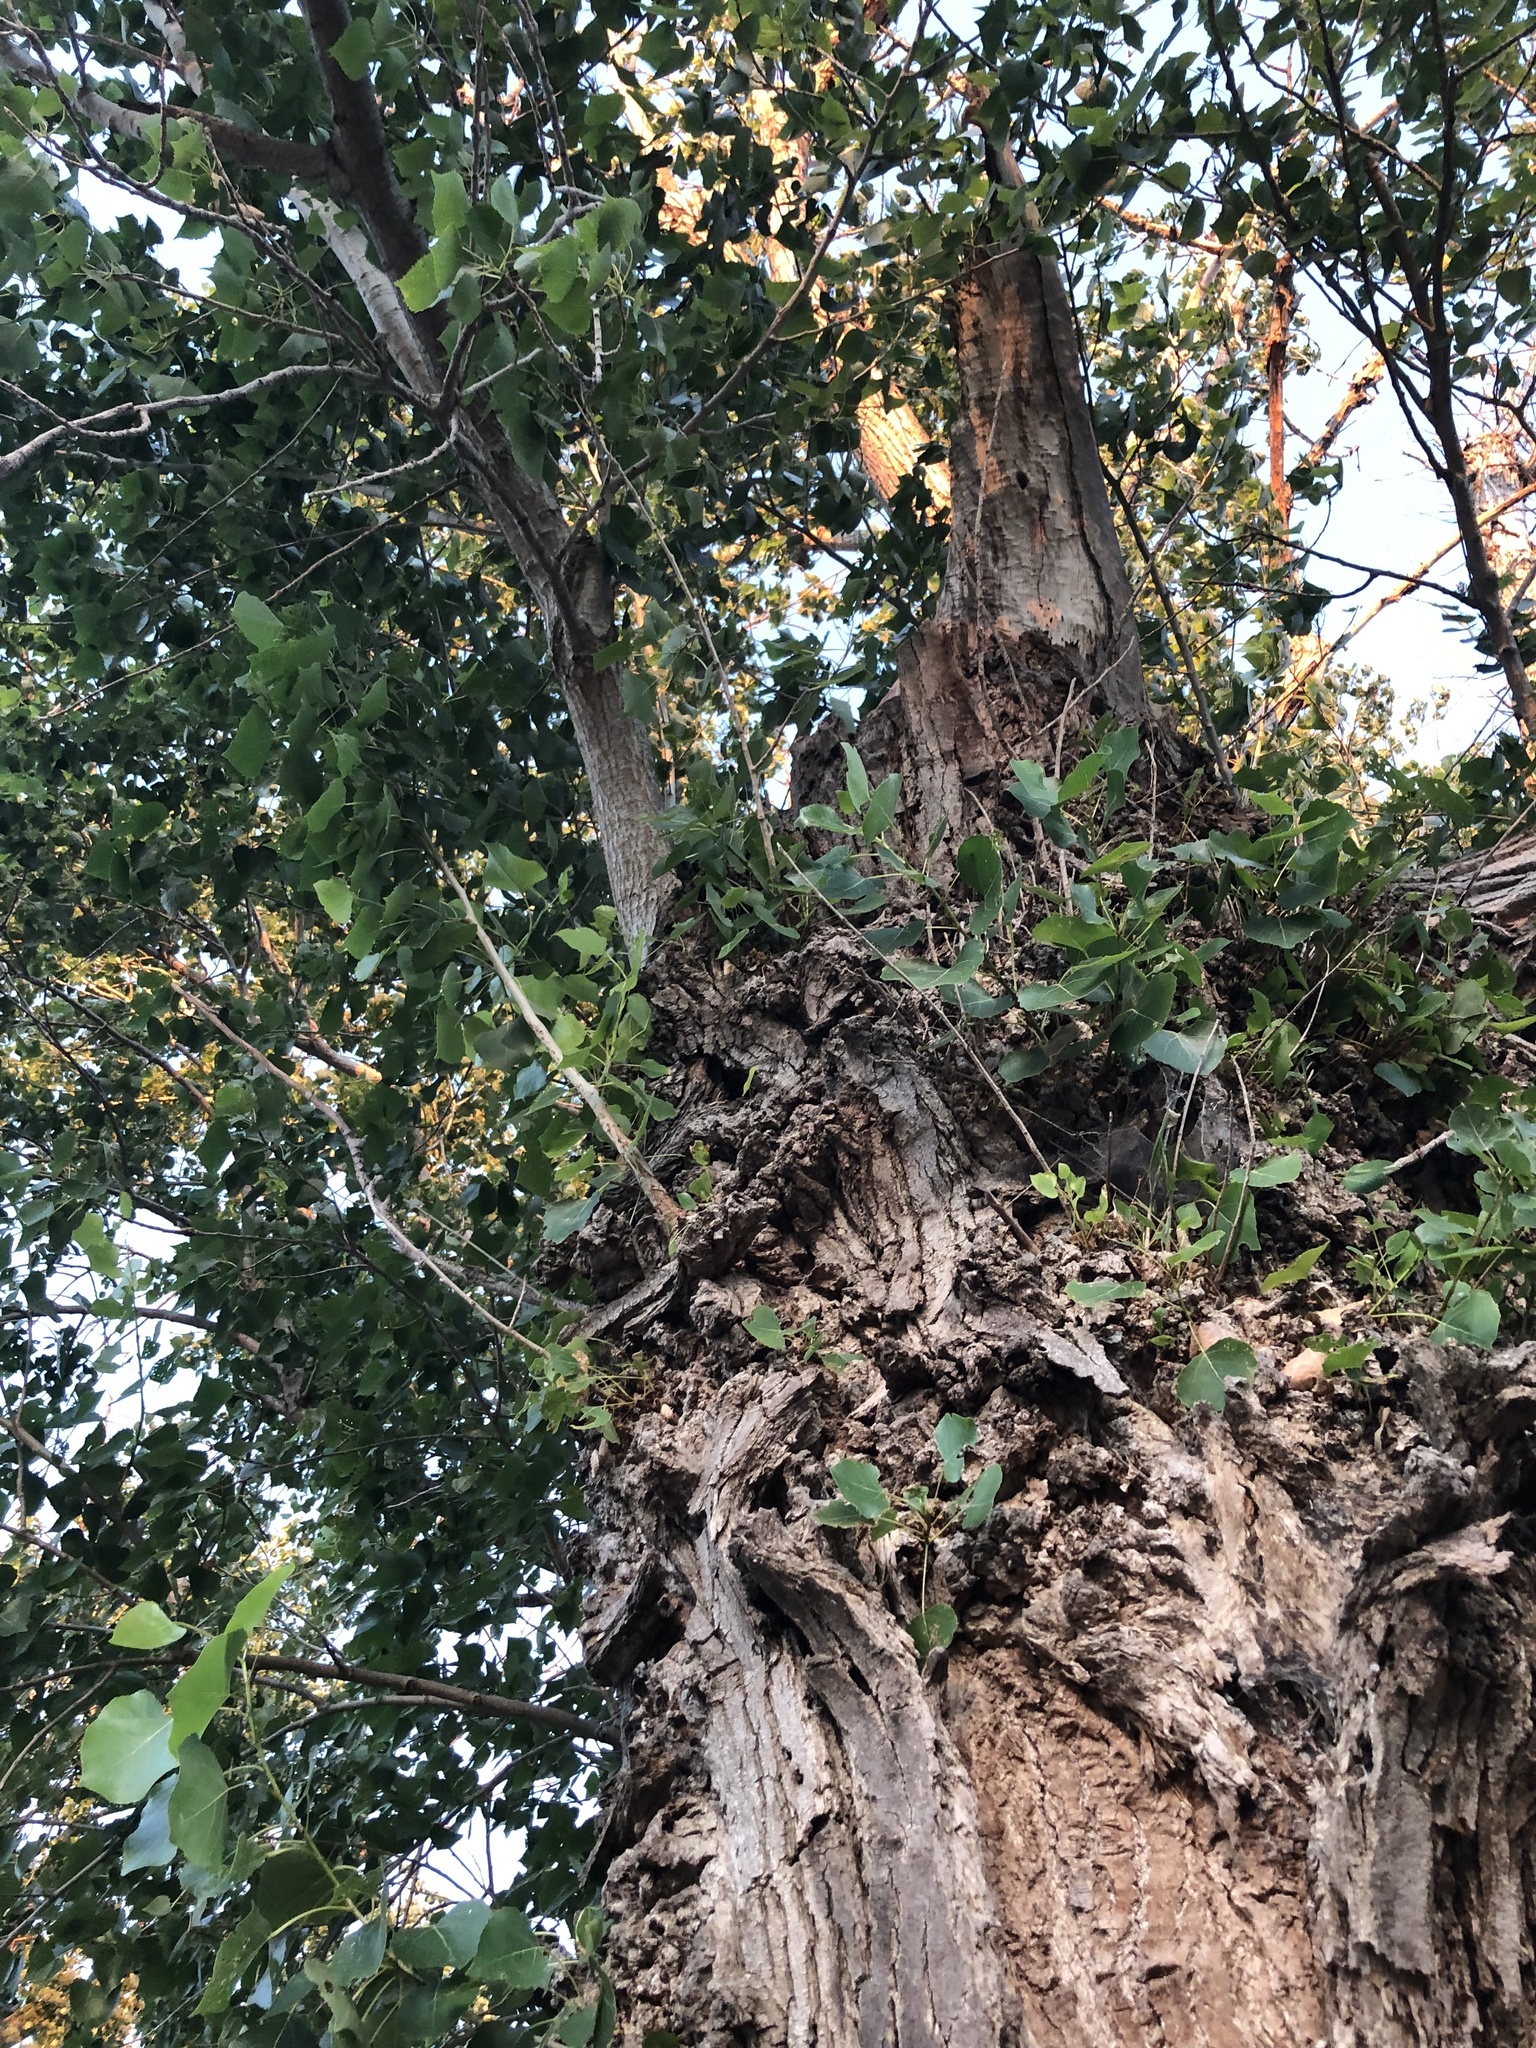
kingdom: Plantae
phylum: Tracheophyta
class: Magnoliopsida
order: Malpighiales
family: Salicaceae
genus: Populus
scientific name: Populus fremontii
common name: Fremont's cottonwood
